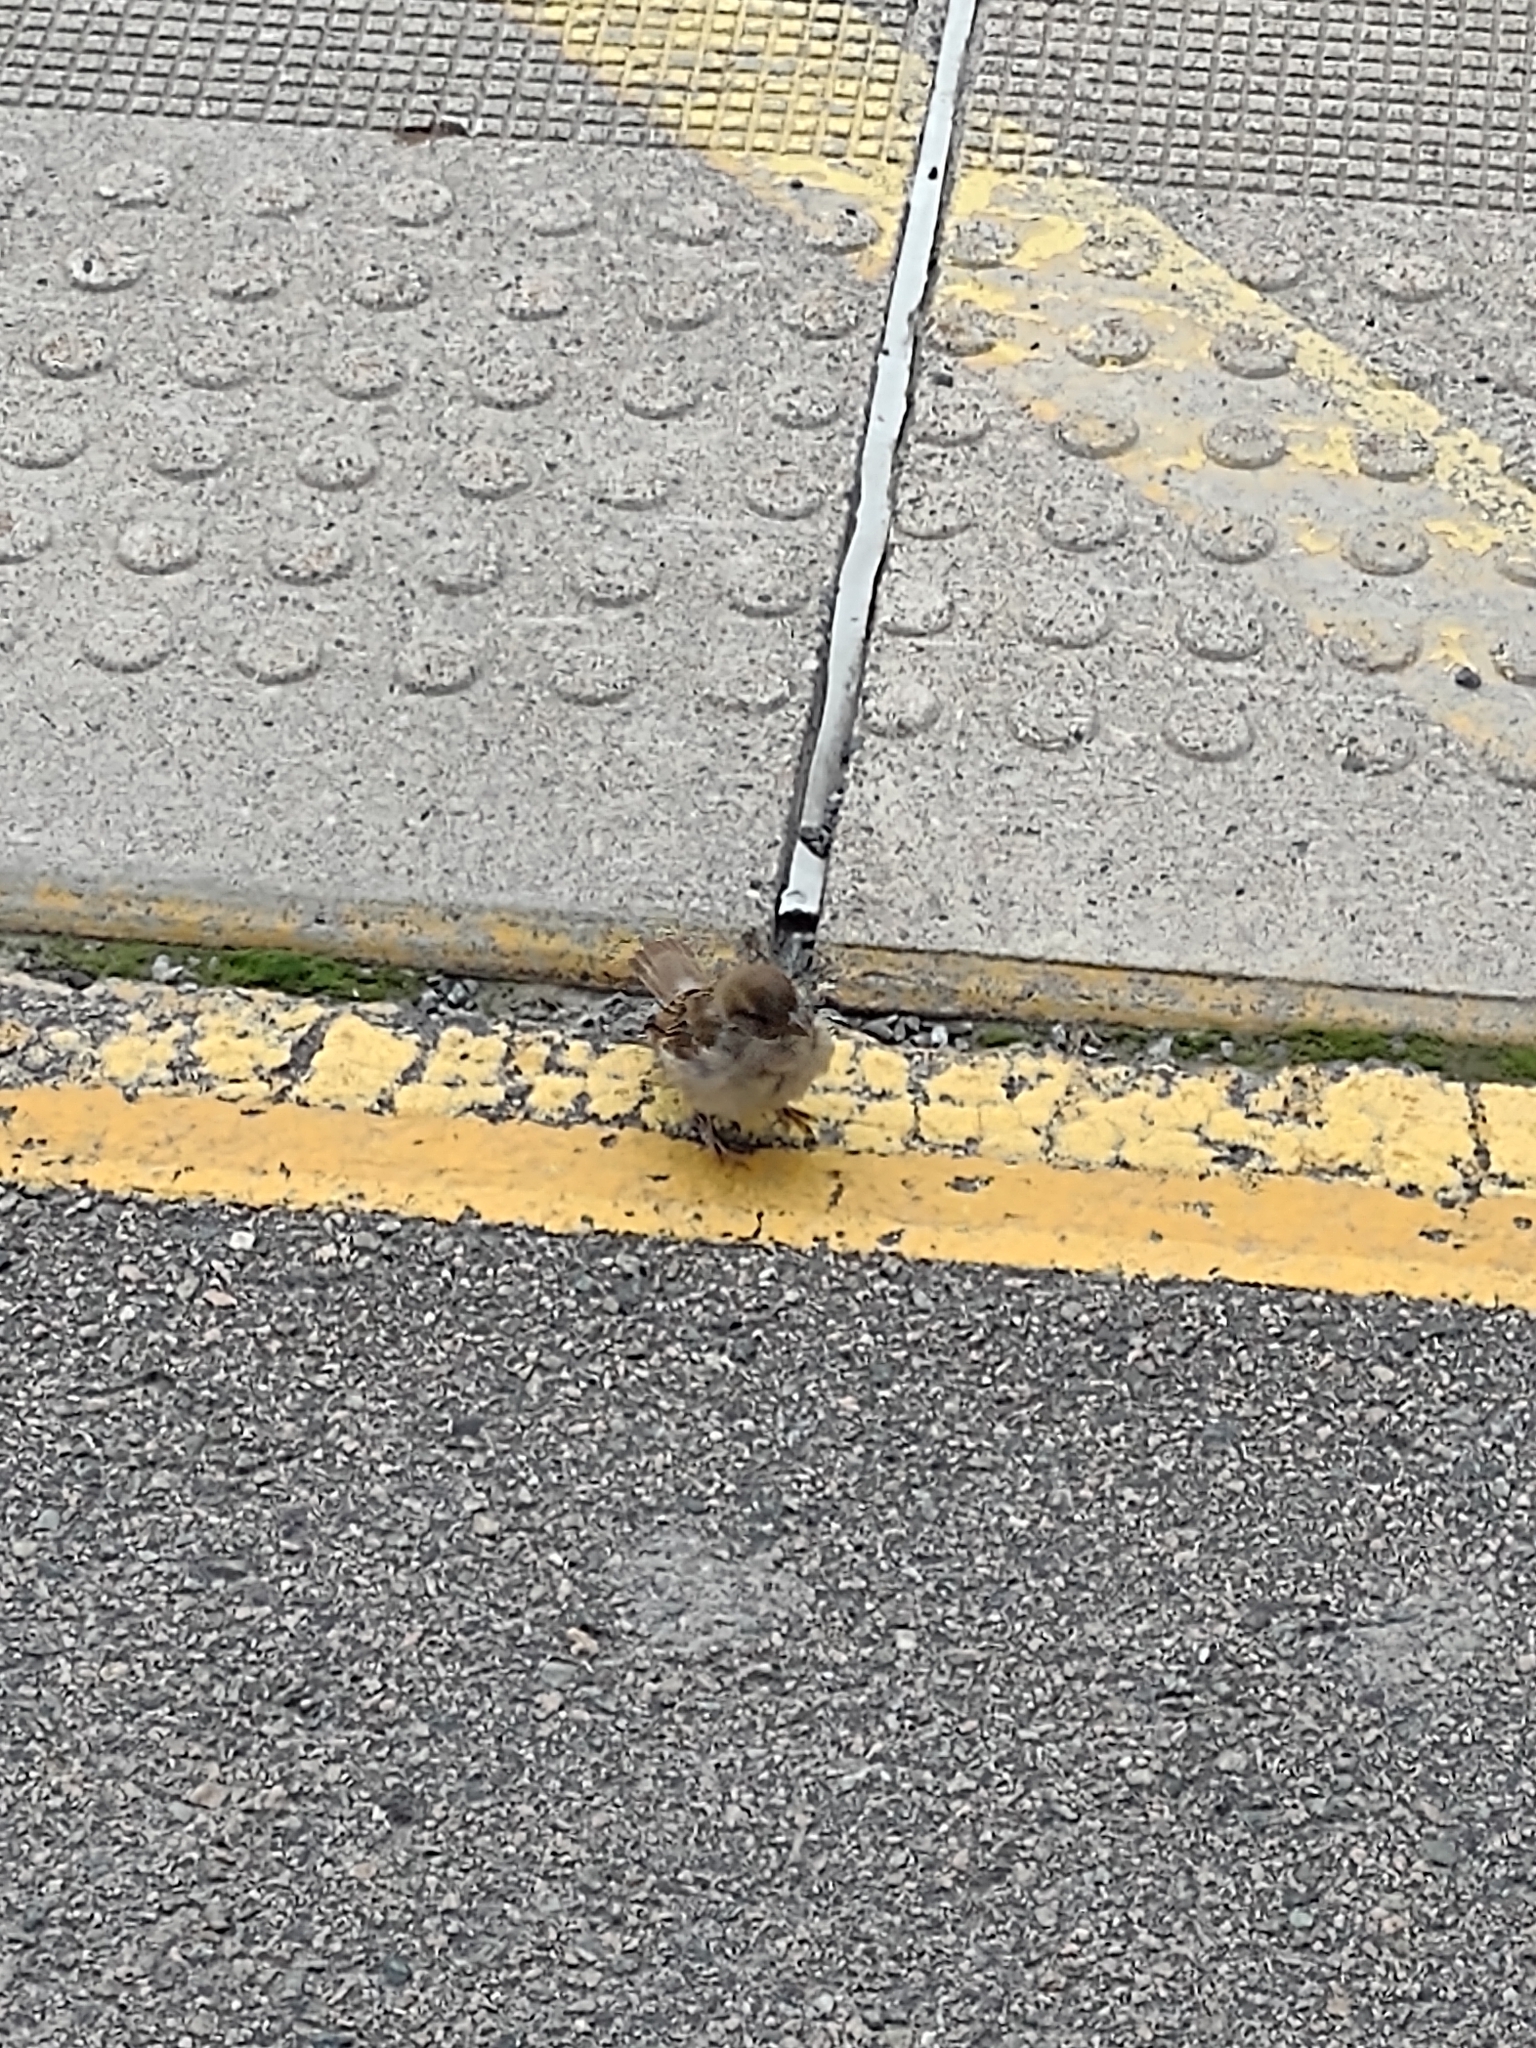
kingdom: Animalia
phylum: Chordata
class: Aves
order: Passeriformes
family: Passeridae
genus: Passer
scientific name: Passer domesticus
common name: House sparrow
